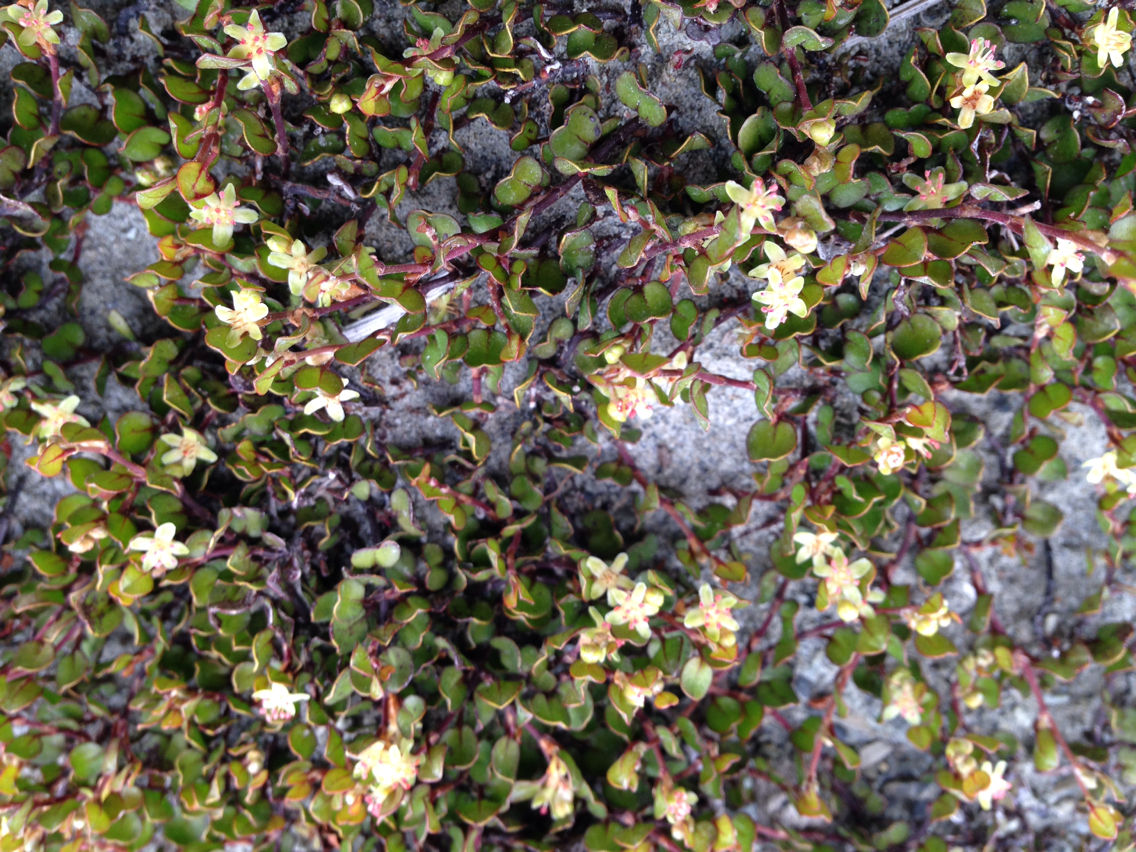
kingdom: Plantae
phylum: Tracheophyta
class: Magnoliopsida
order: Caryophyllales
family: Polygonaceae
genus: Muehlenbeckia
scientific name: Muehlenbeckia axillaris
